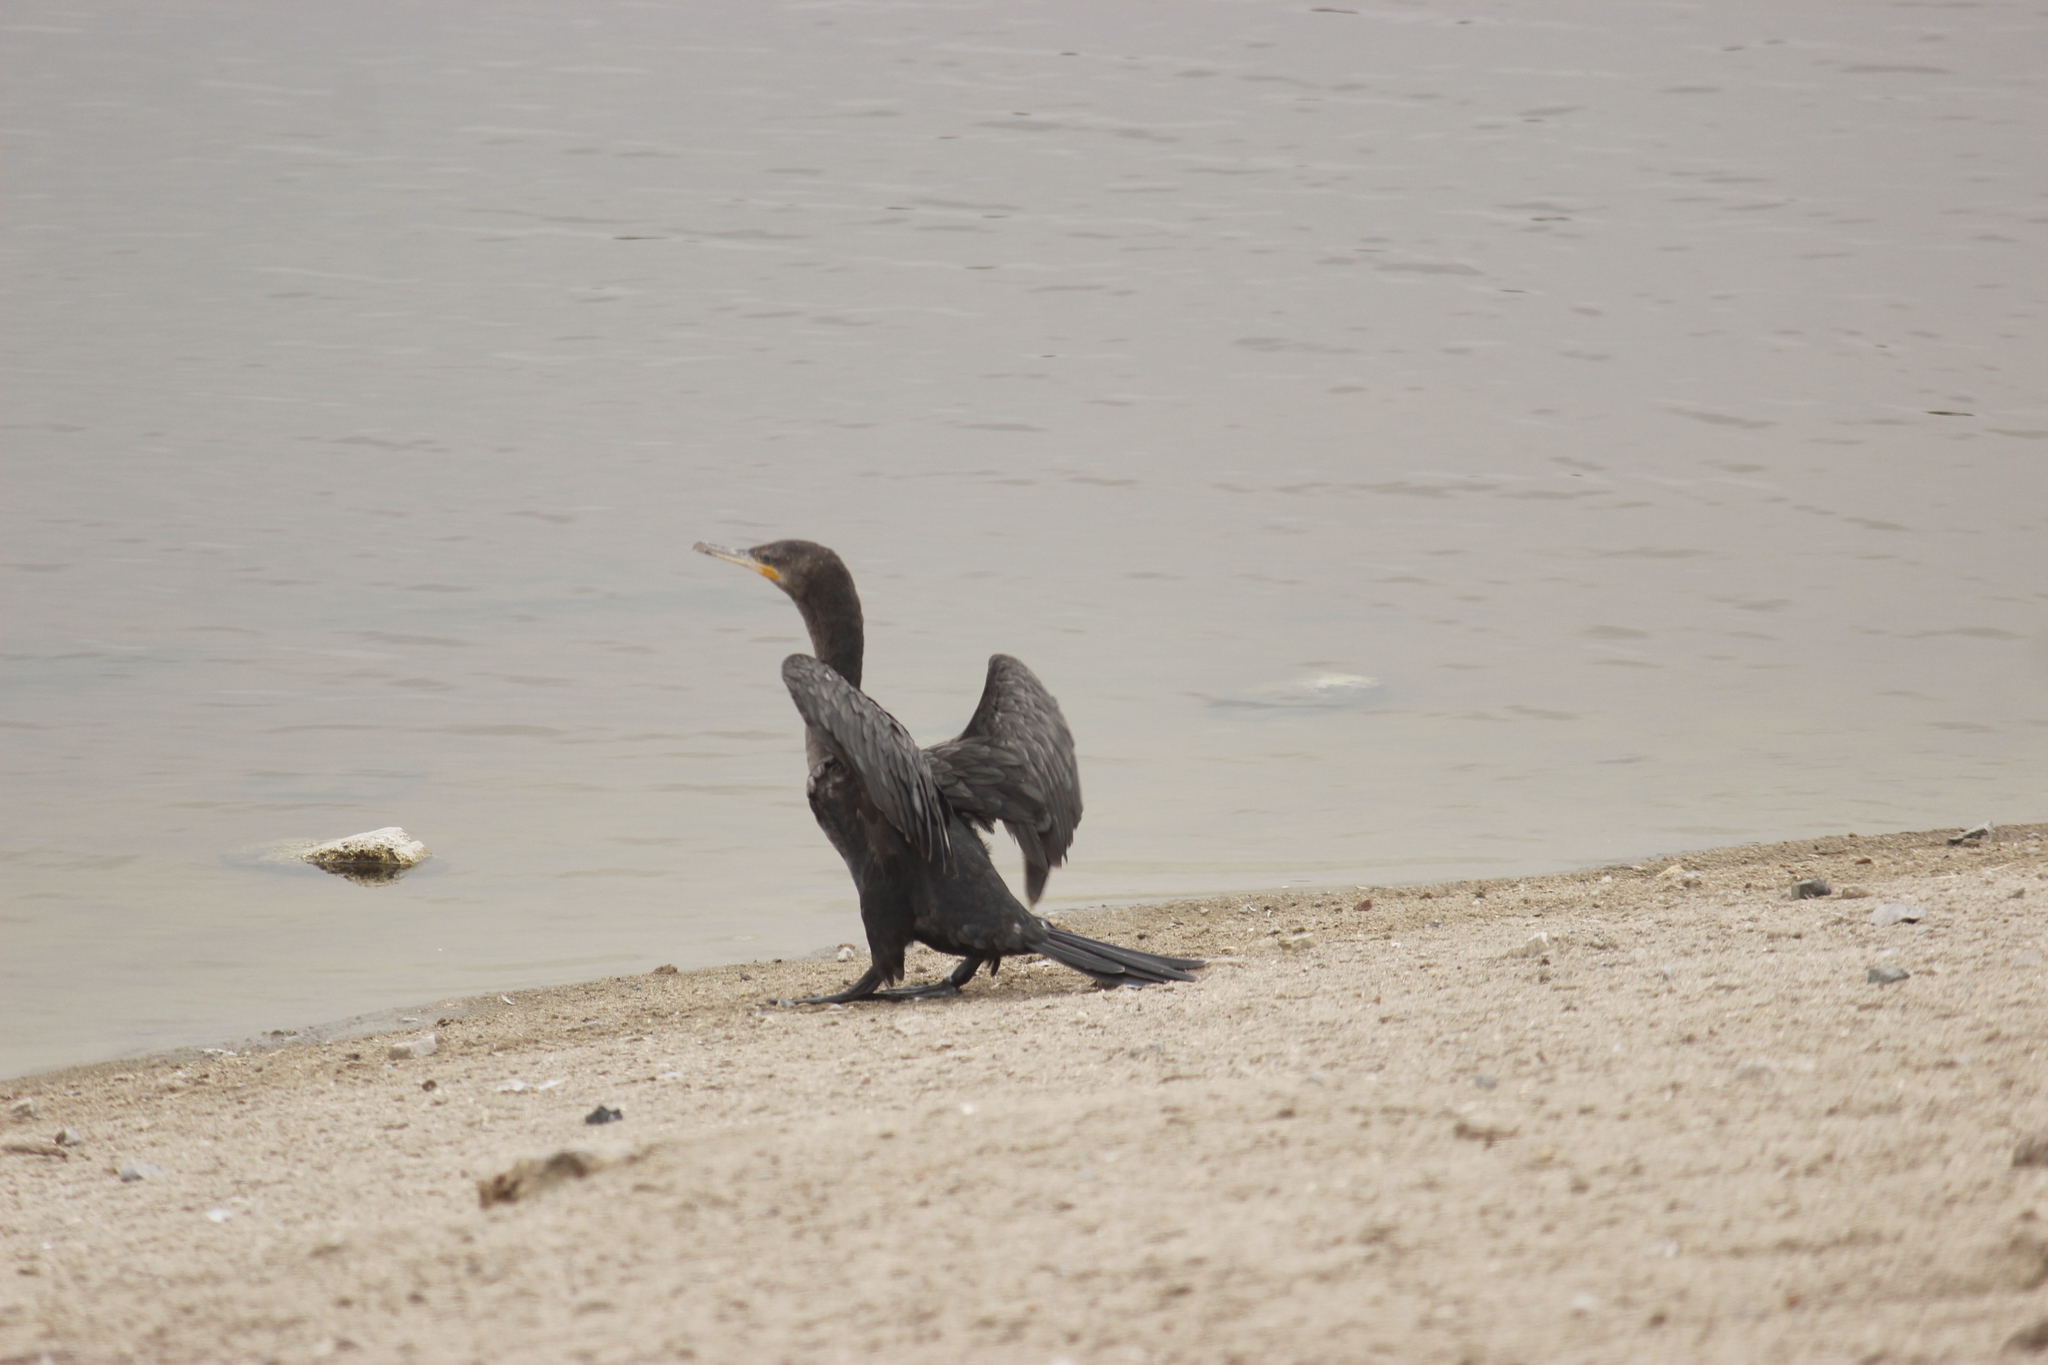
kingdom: Animalia
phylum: Chordata
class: Aves
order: Suliformes
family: Phalacrocoracidae
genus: Phalacrocorax
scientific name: Phalacrocorax brasilianus
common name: Neotropic cormorant
